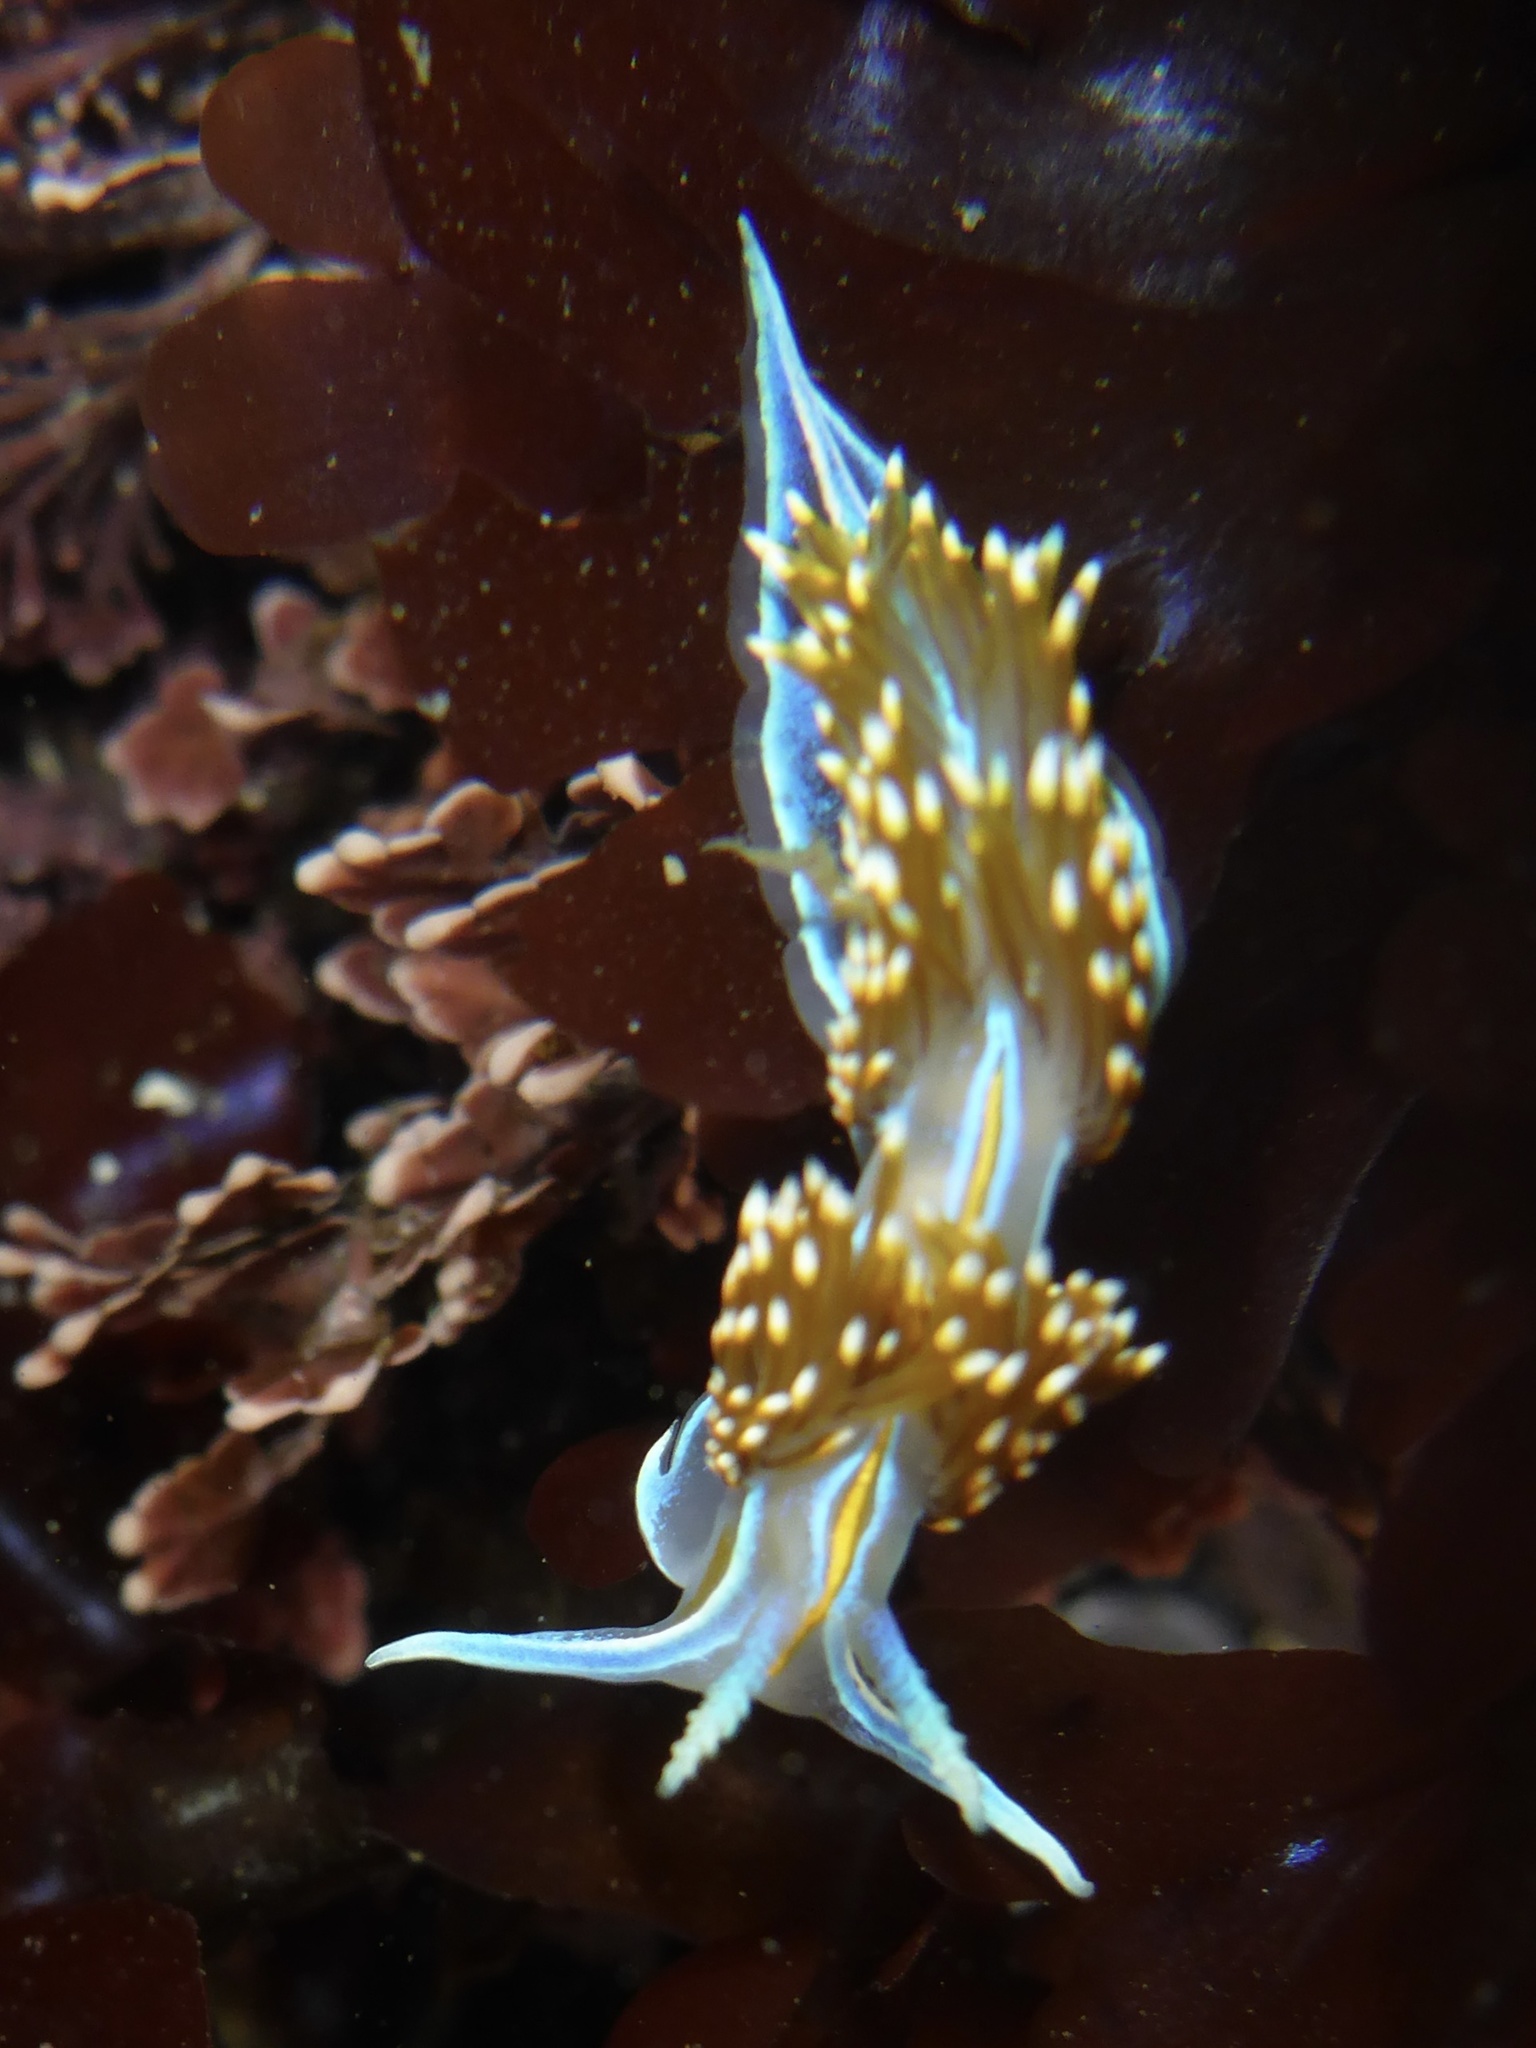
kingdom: Animalia
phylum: Mollusca
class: Gastropoda
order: Nudibranchia
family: Myrrhinidae
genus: Hermissenda
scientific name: Hermissenda opalescens
